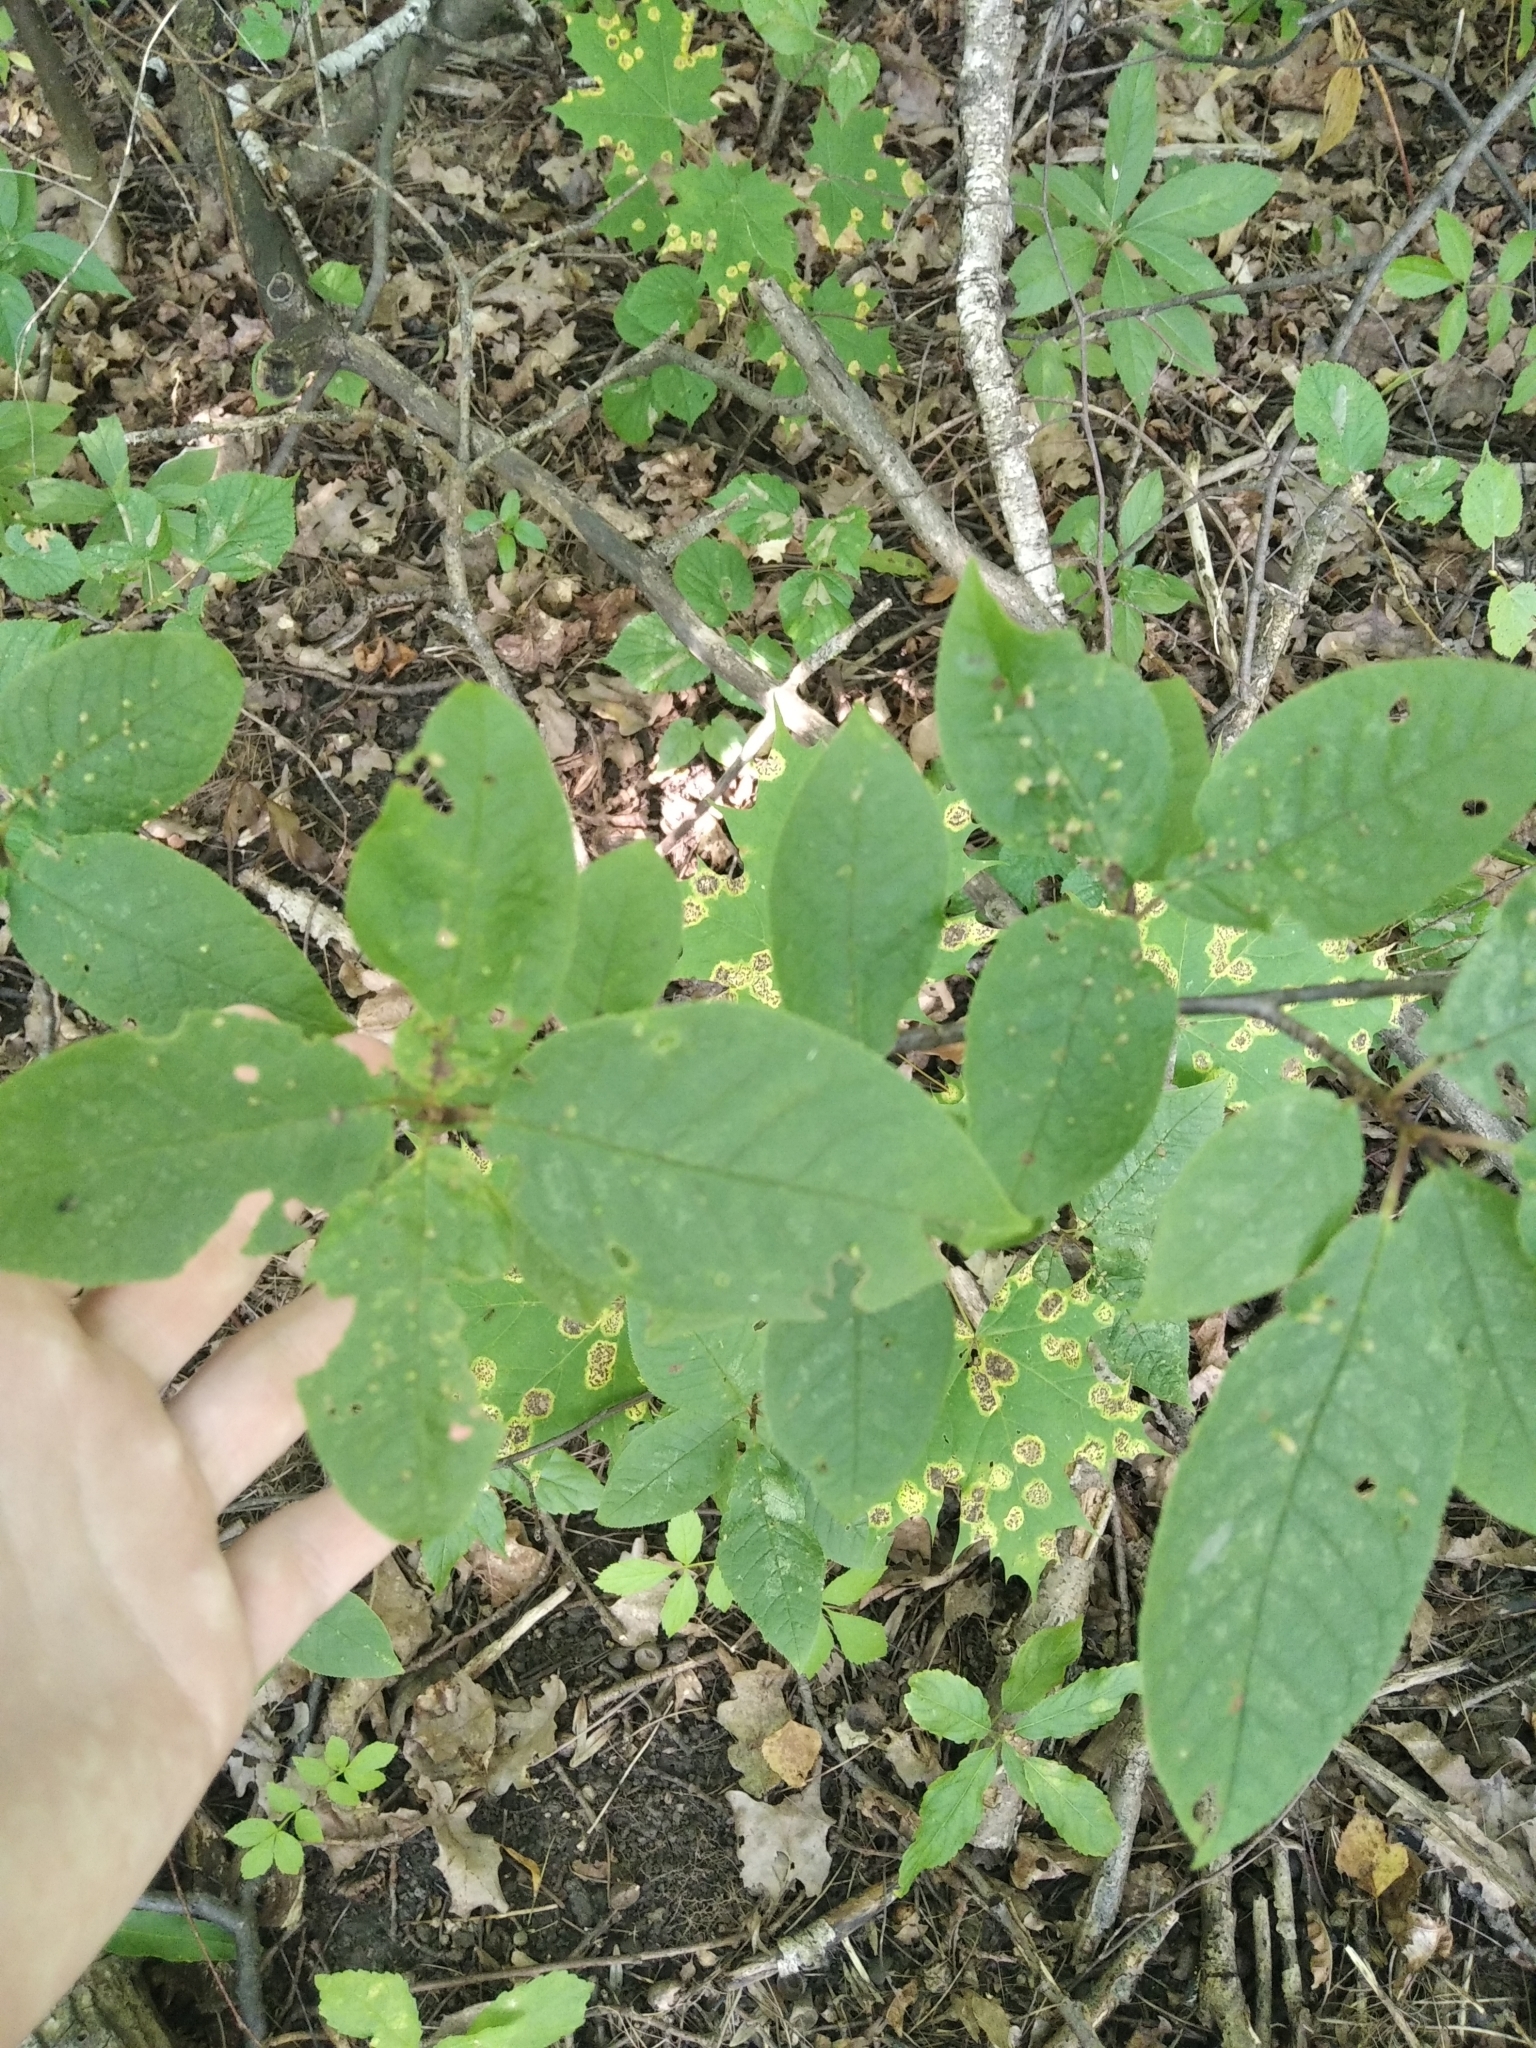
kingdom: Plantae
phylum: Tracheophyta
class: Magnoliopsida
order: Rosales
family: Rosaceae
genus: Prunus
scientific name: Prunus padus
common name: Bird cherry
